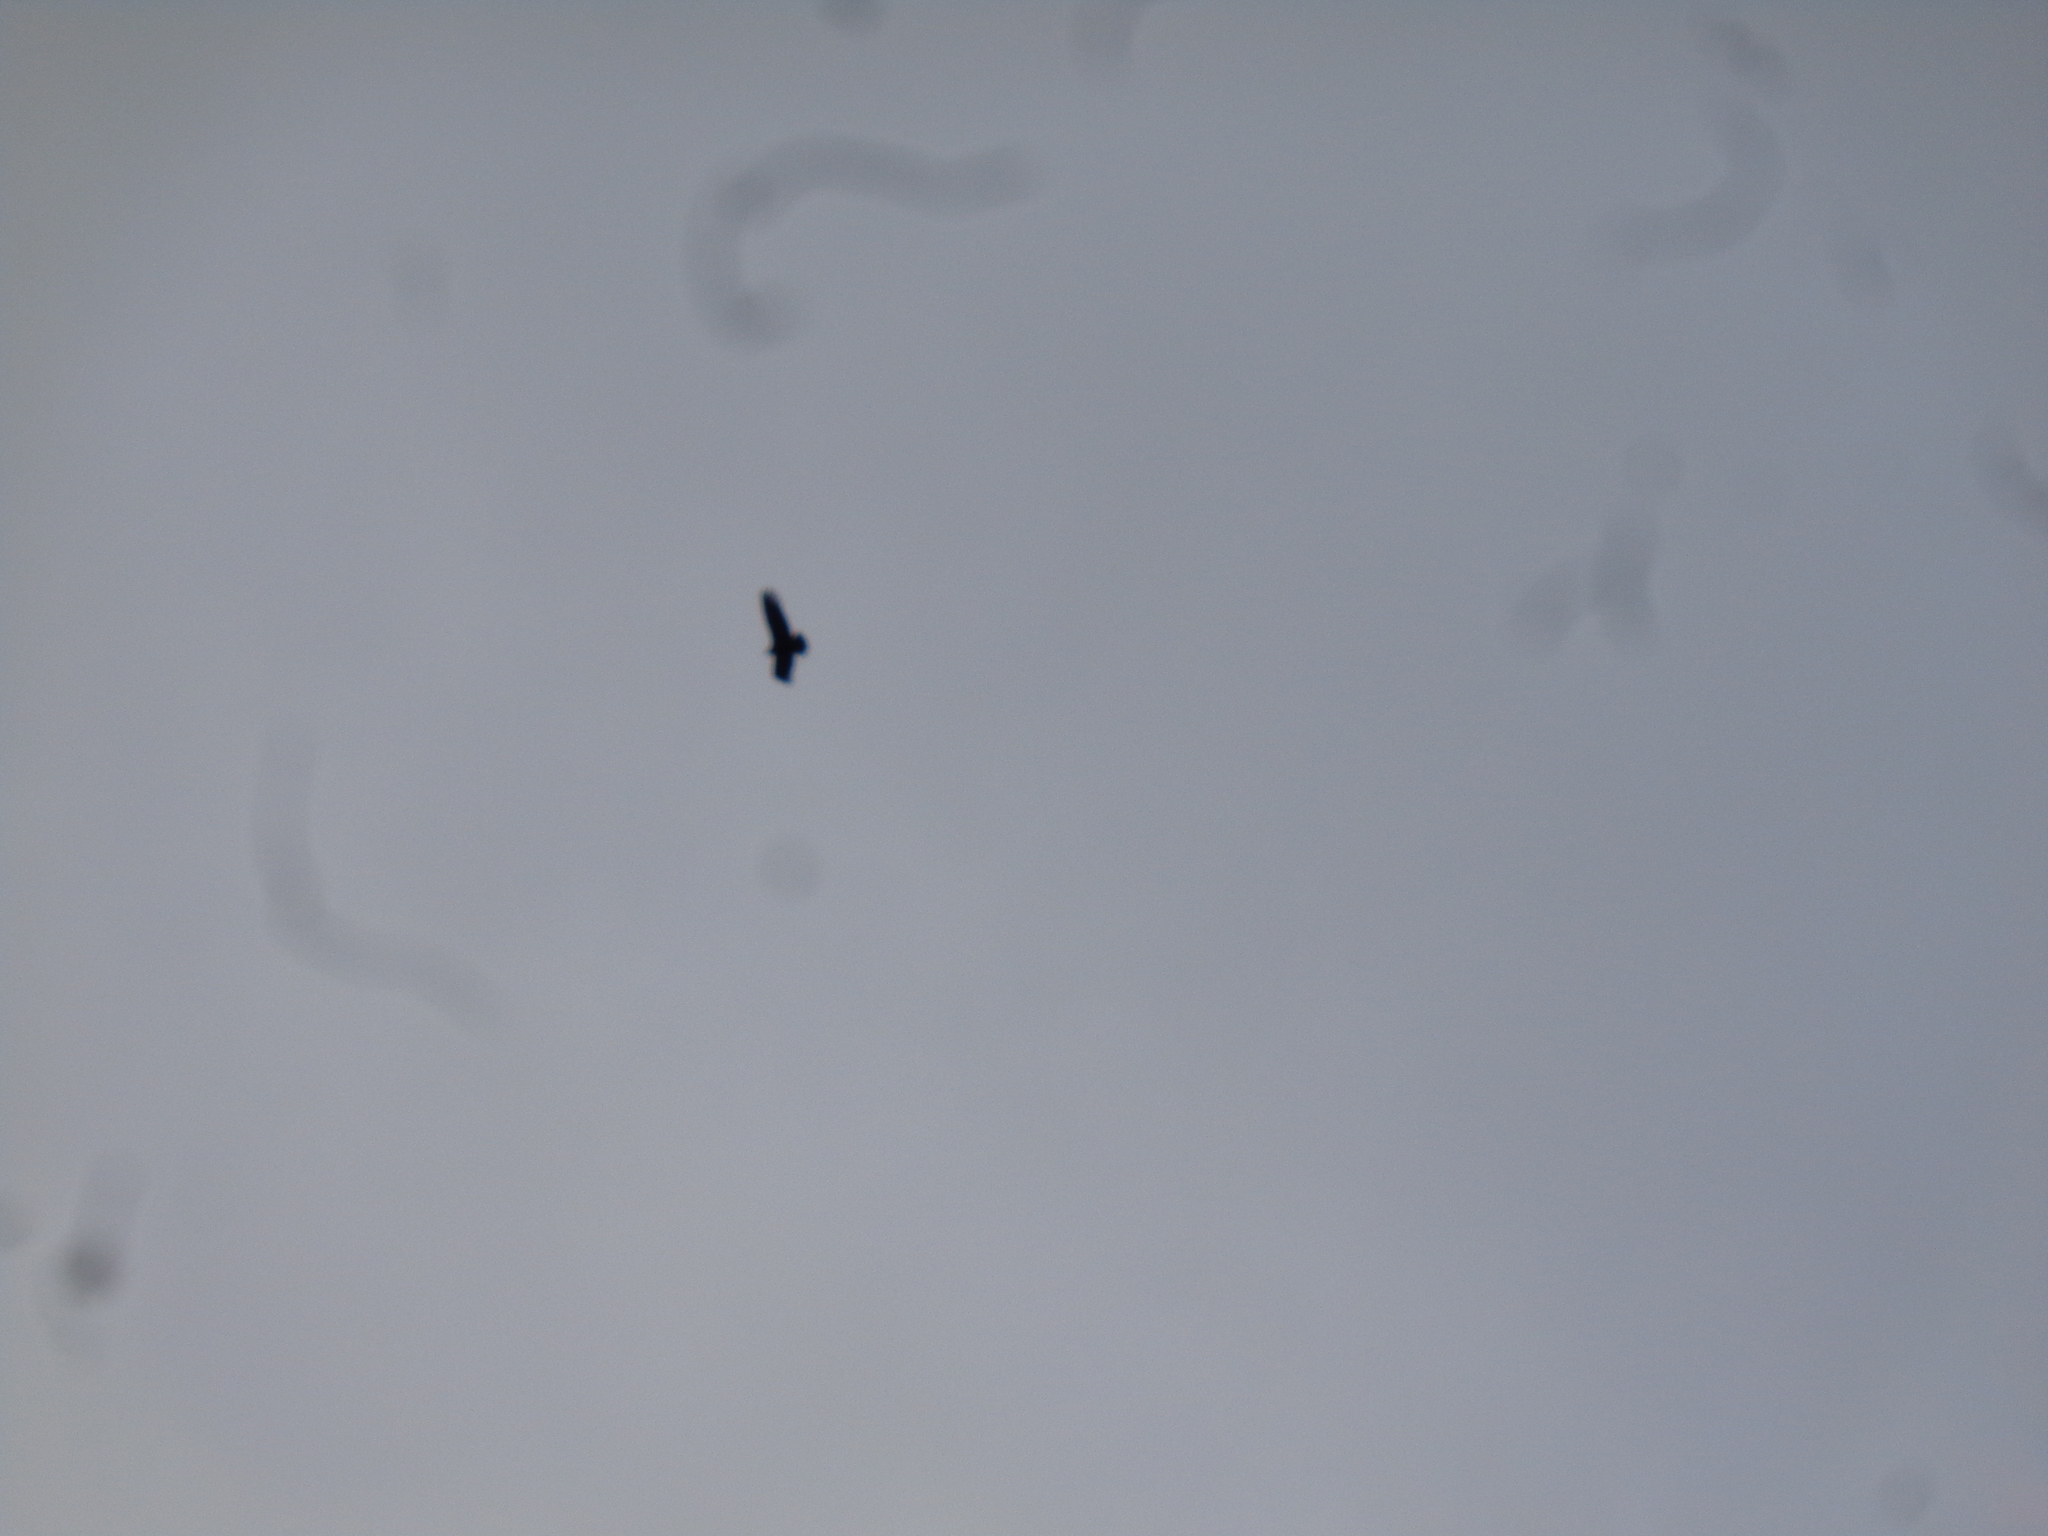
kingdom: Animalia
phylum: Chordata
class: Aves
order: Accipitriformes
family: Cathartidae
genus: Vultur
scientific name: Vultur gryphus
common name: Andean condor
